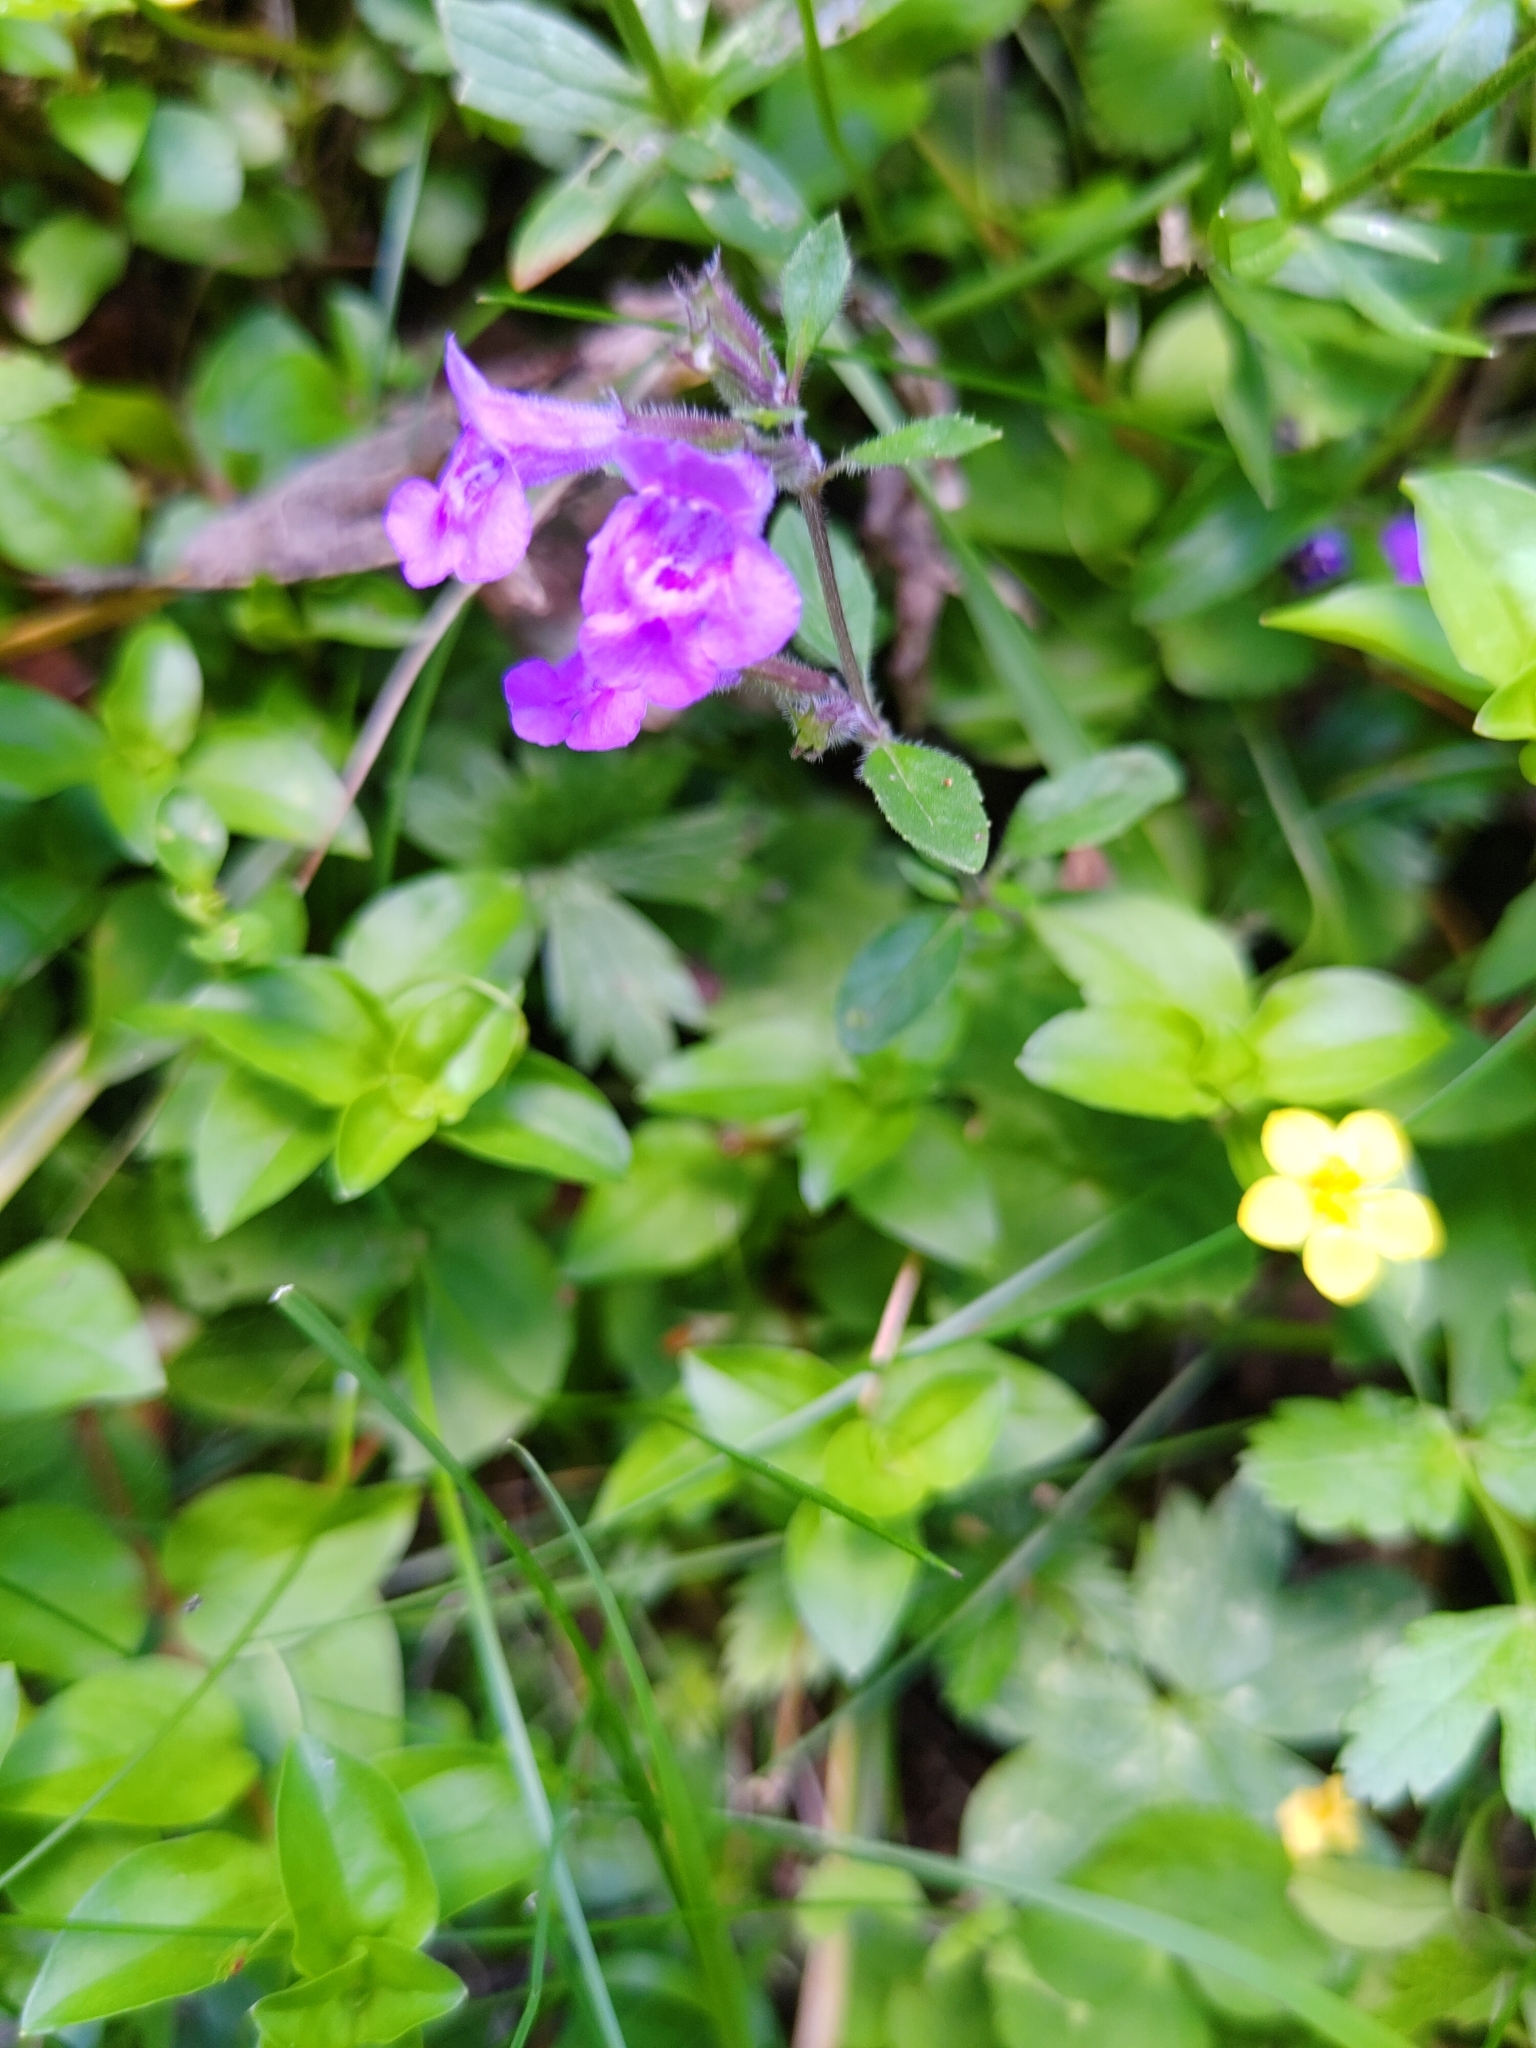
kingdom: Plantae
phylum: Tracheophyta
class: Magnoliopsida
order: Lamiales
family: Lamiaceae
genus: Clinopodium
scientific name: Clinopodium alpinum
